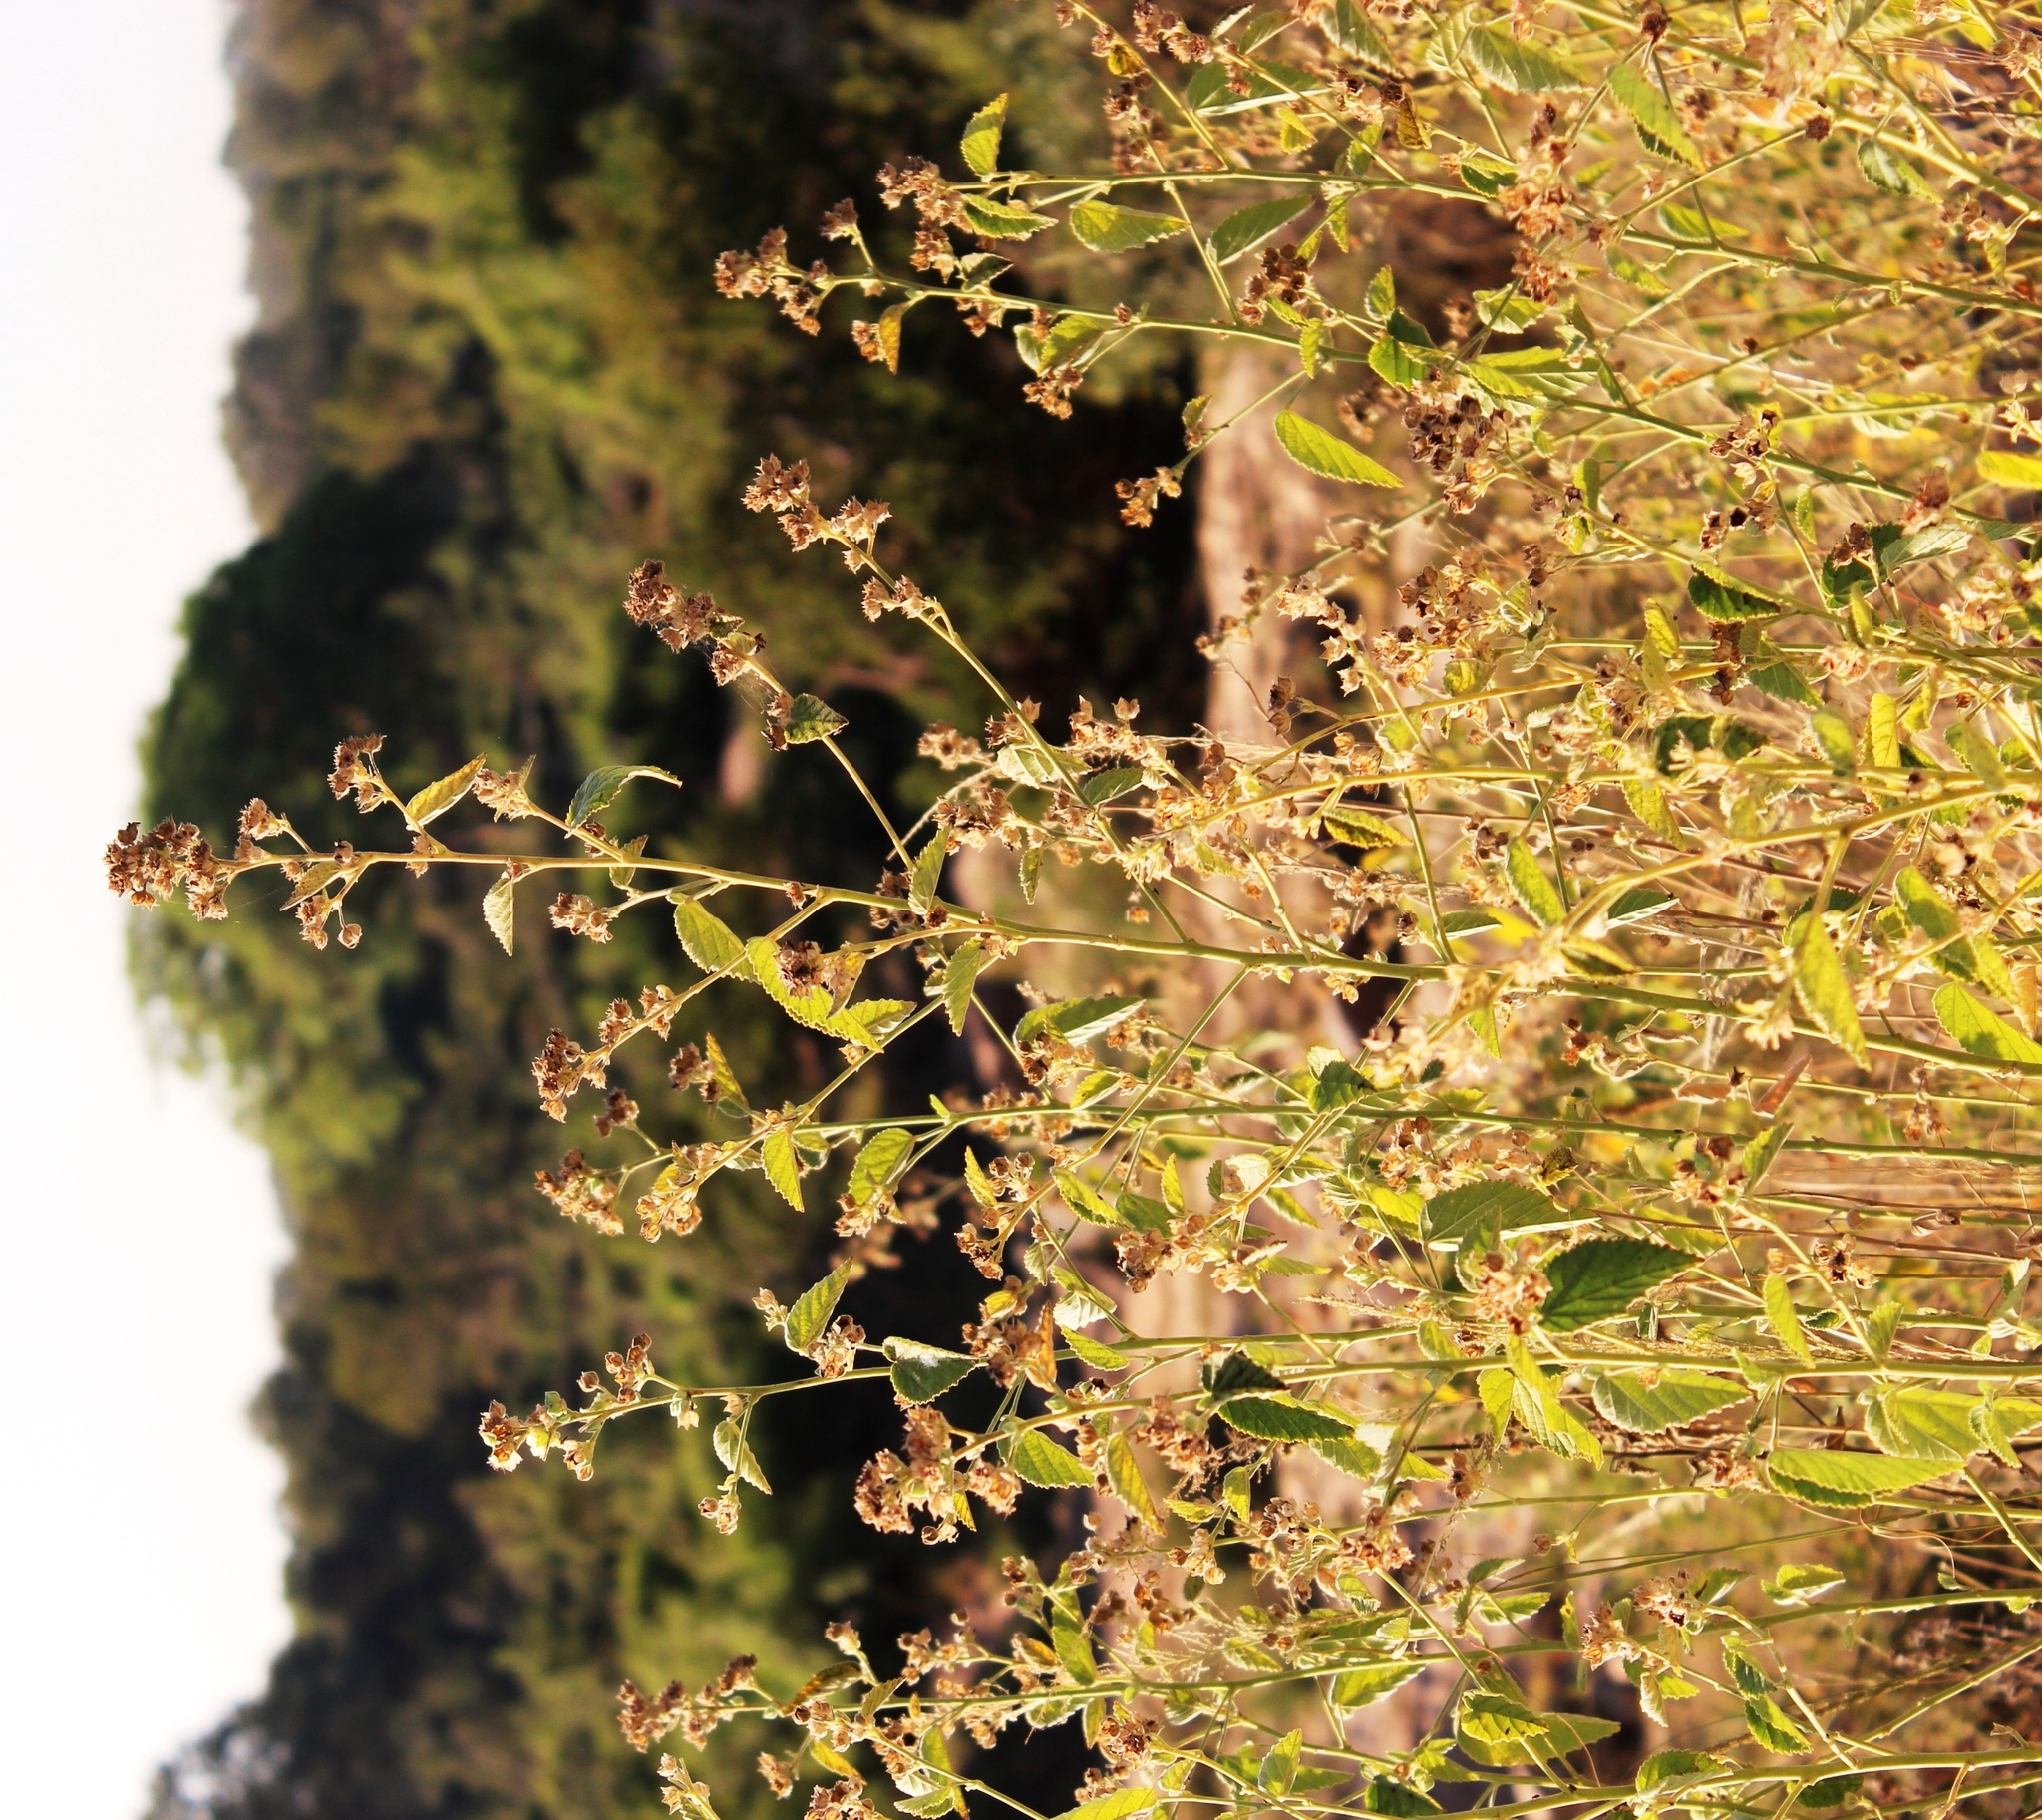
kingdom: Plantae
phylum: Tracheophyta
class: Magnoliopsida
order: Malvales
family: Malvaceae
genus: Sida
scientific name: Sida cordifolia
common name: Ilima
